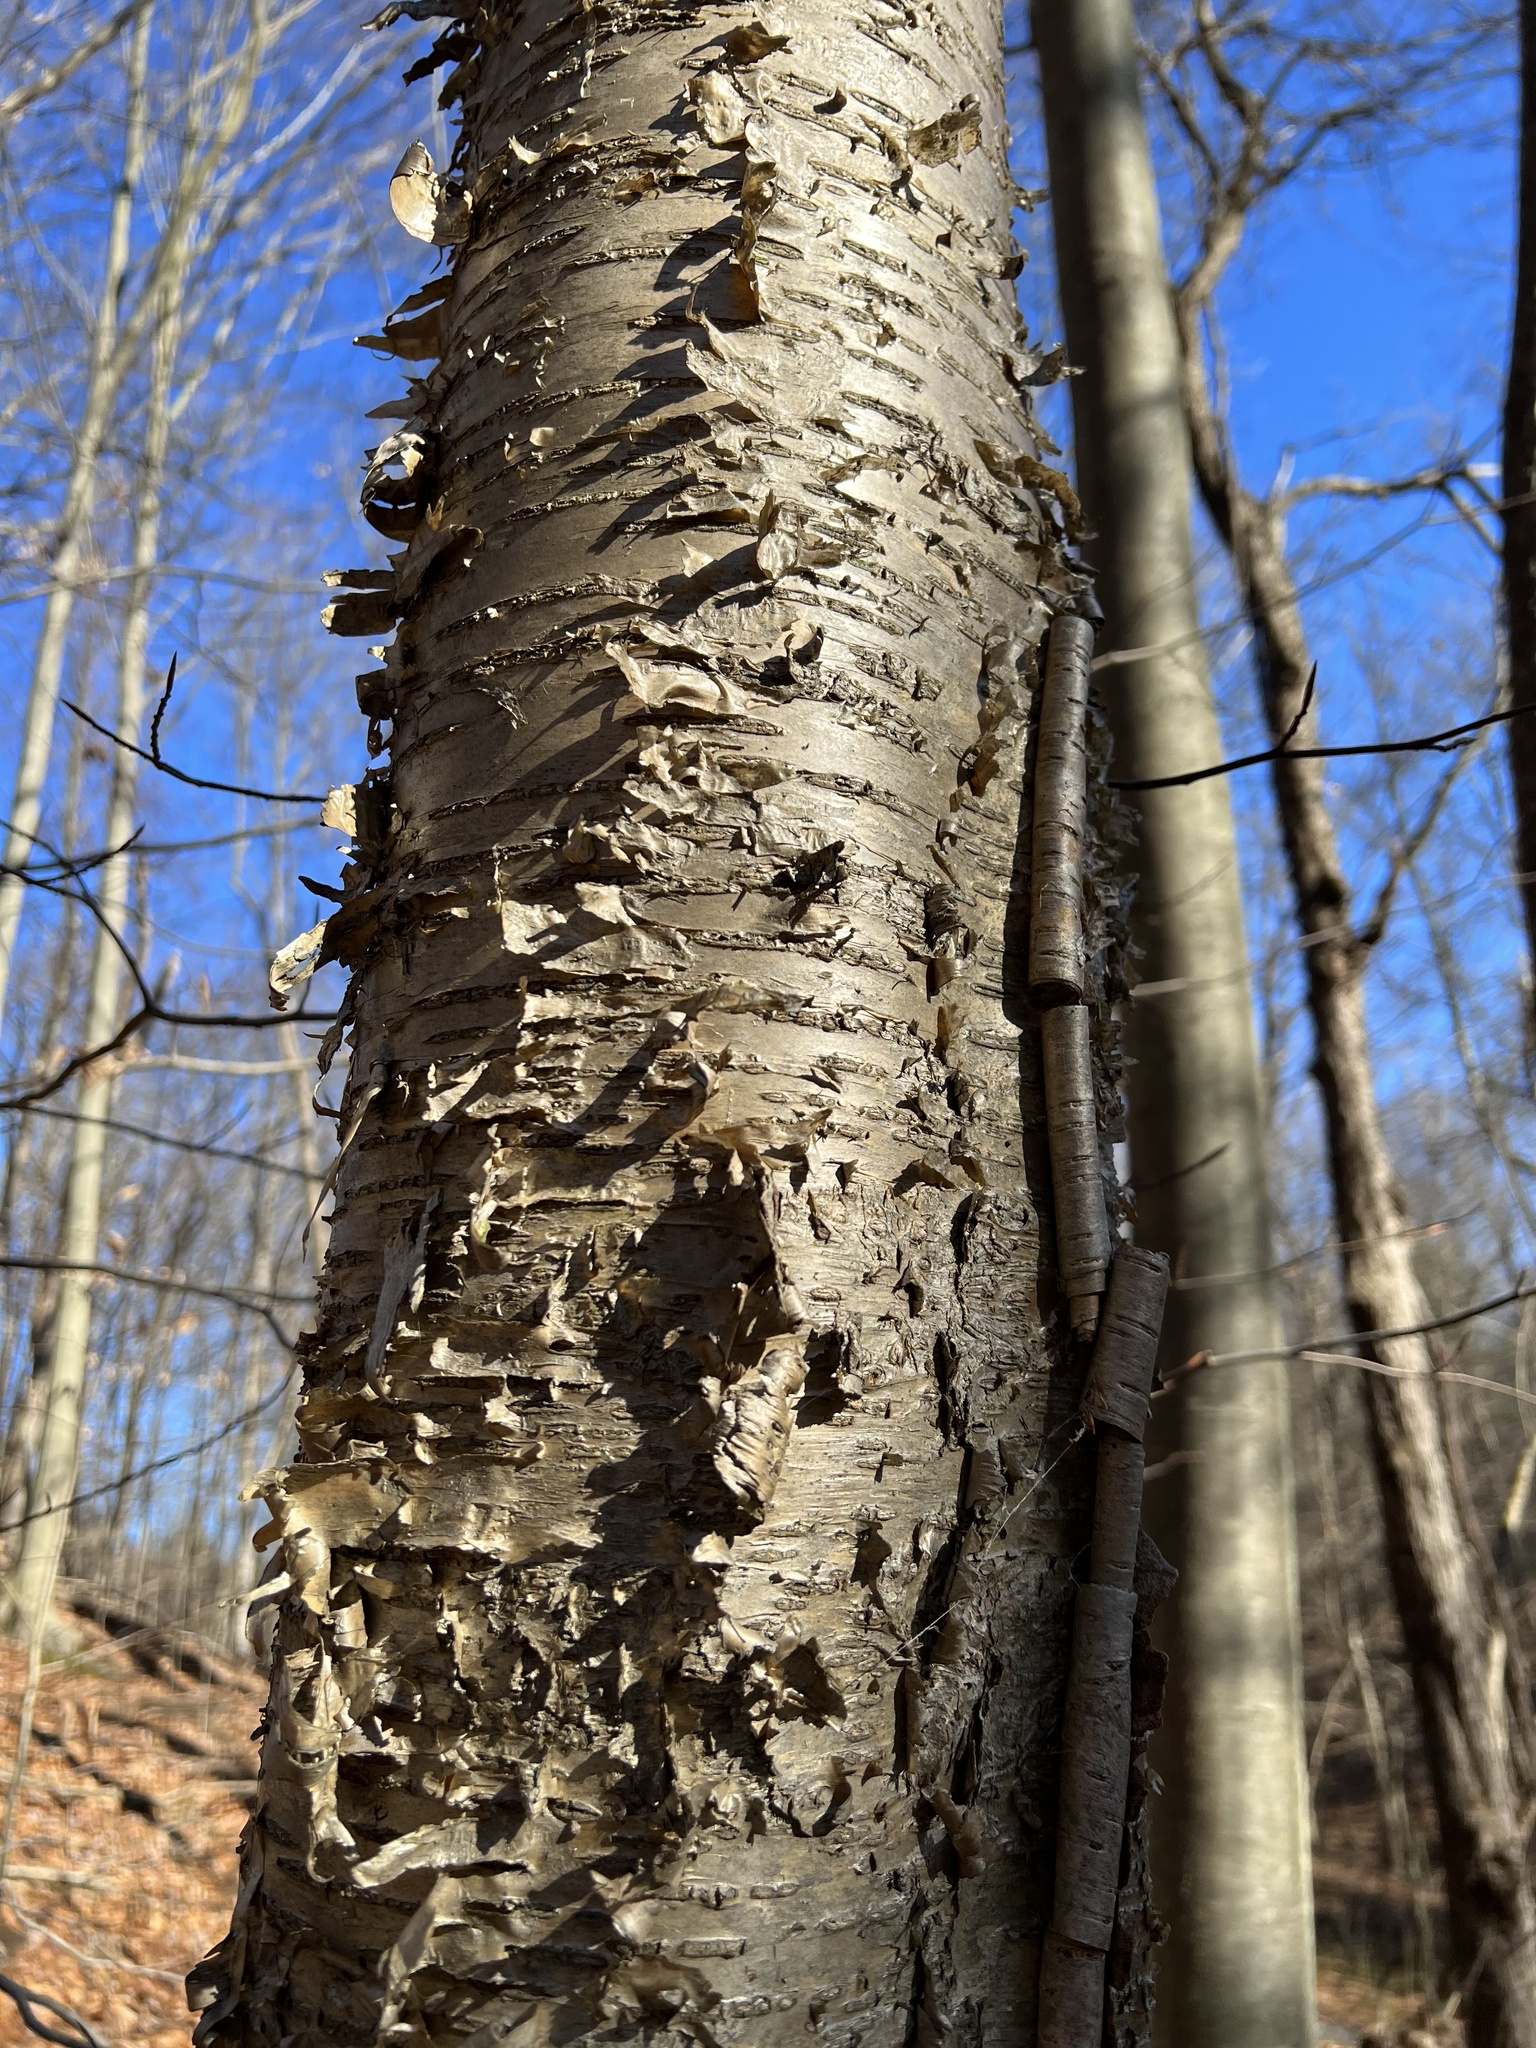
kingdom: Plantae
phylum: Tracheophyta
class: Magnoliopsida
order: Fagales
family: Betulaceae
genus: Betula
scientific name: Betula alleghaniensis
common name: Yellow birch
